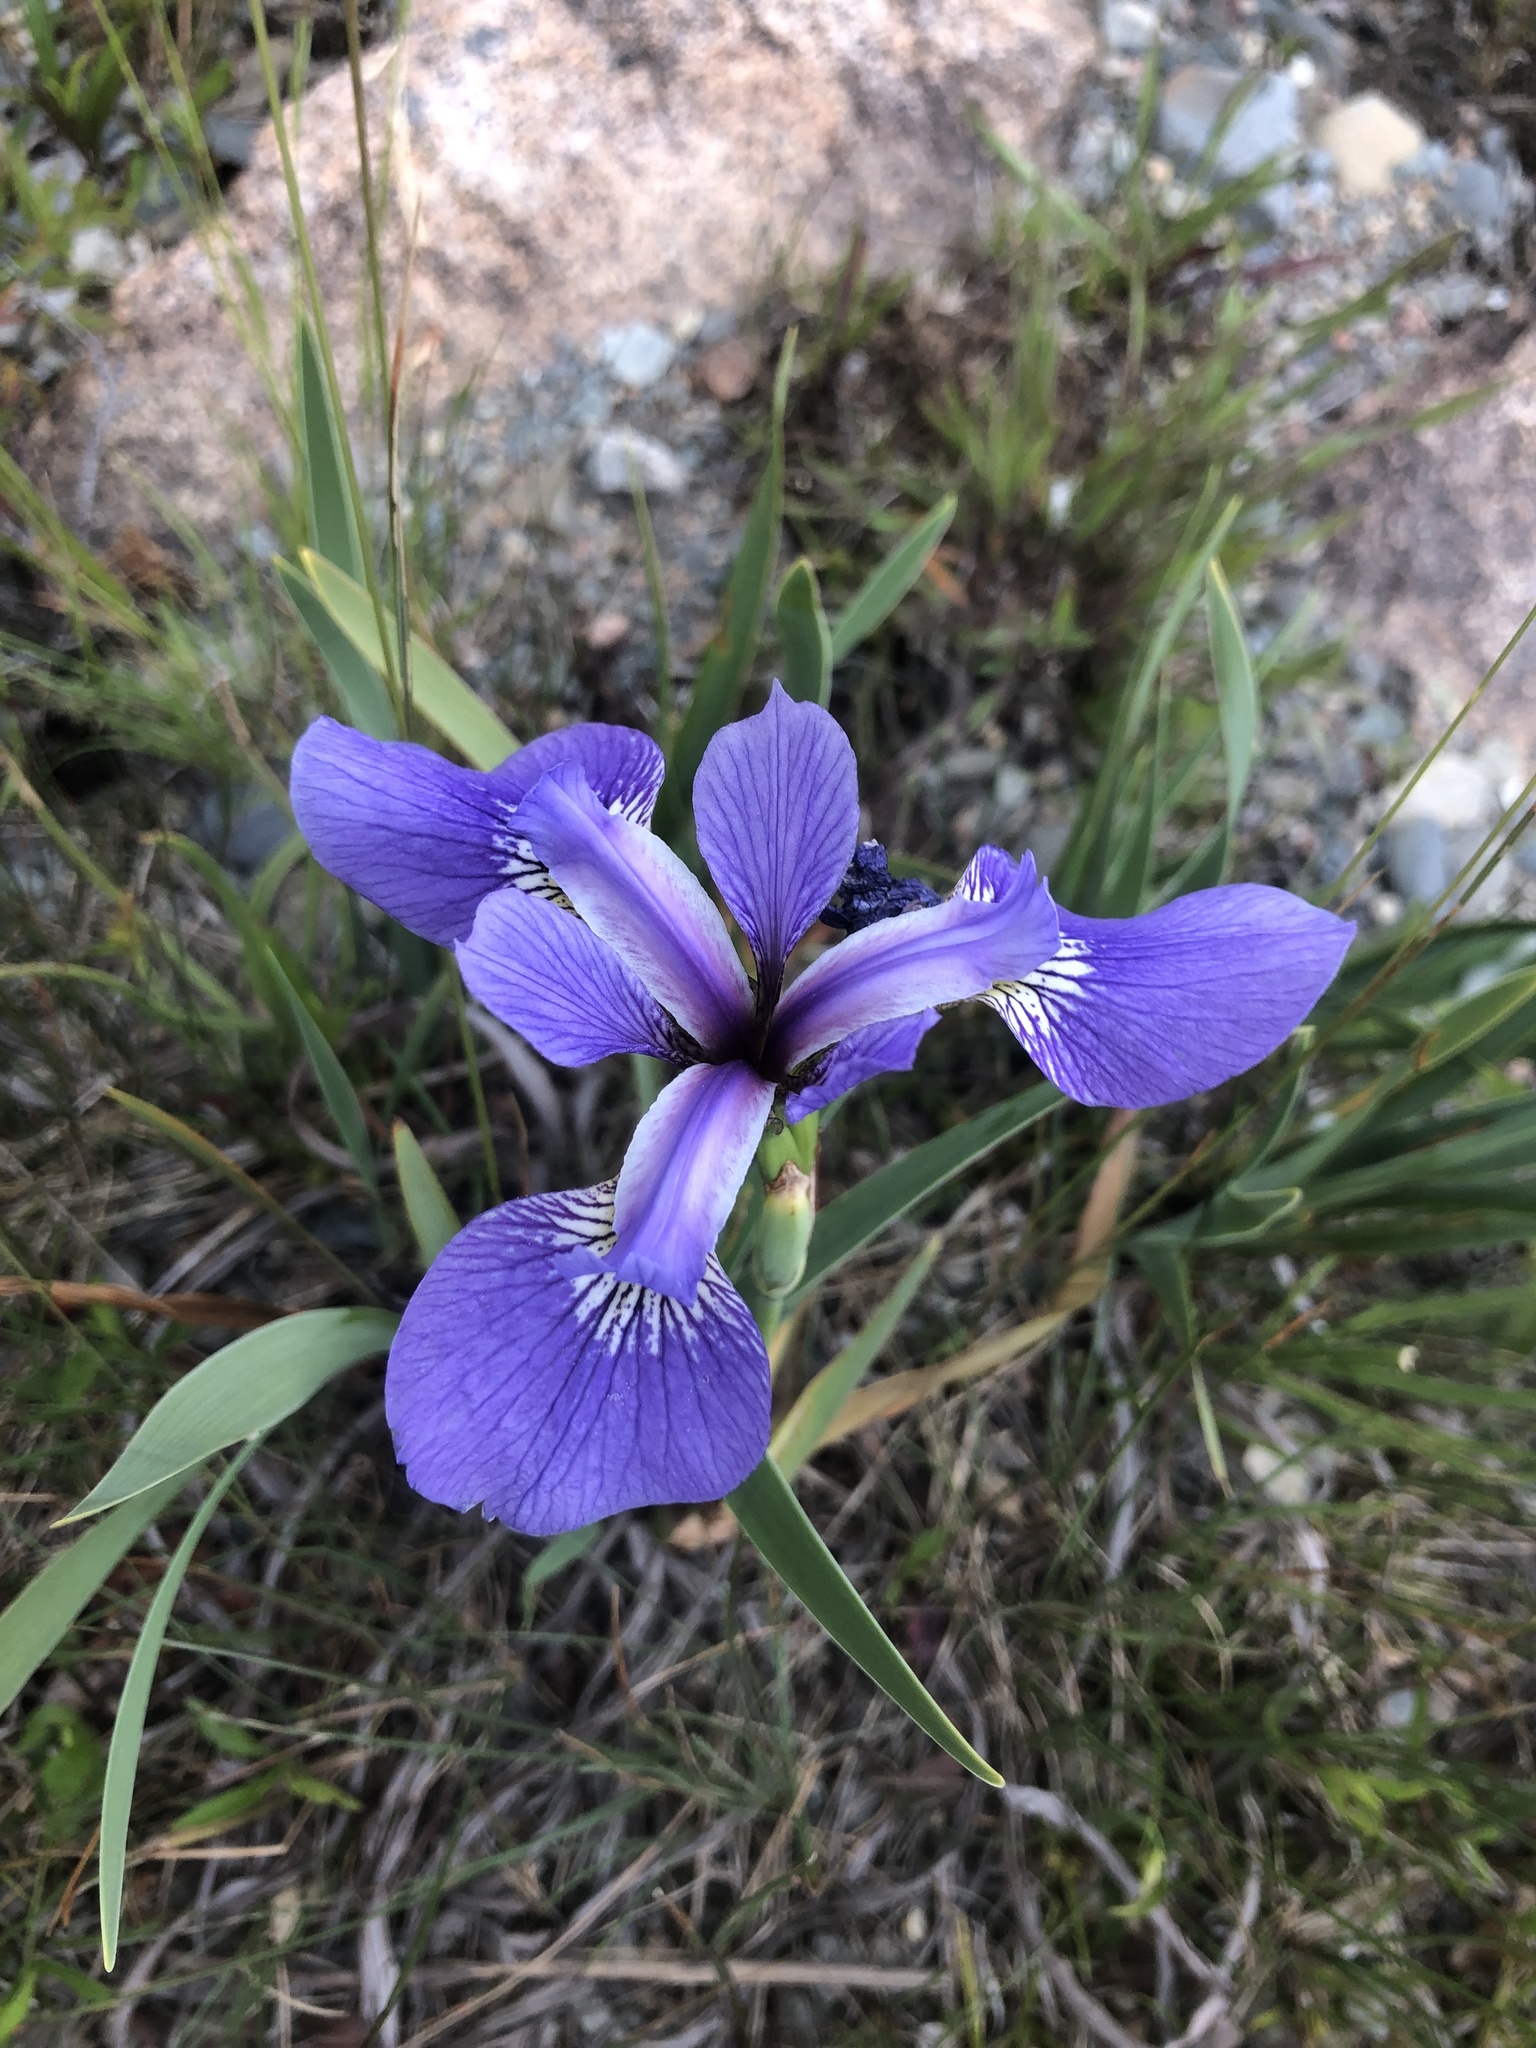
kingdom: Plantae
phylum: Tracheophyta
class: Liliopsida
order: Asparagales
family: Iridaceae
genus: Iris
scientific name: Iris versicolor
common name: Purple iris
